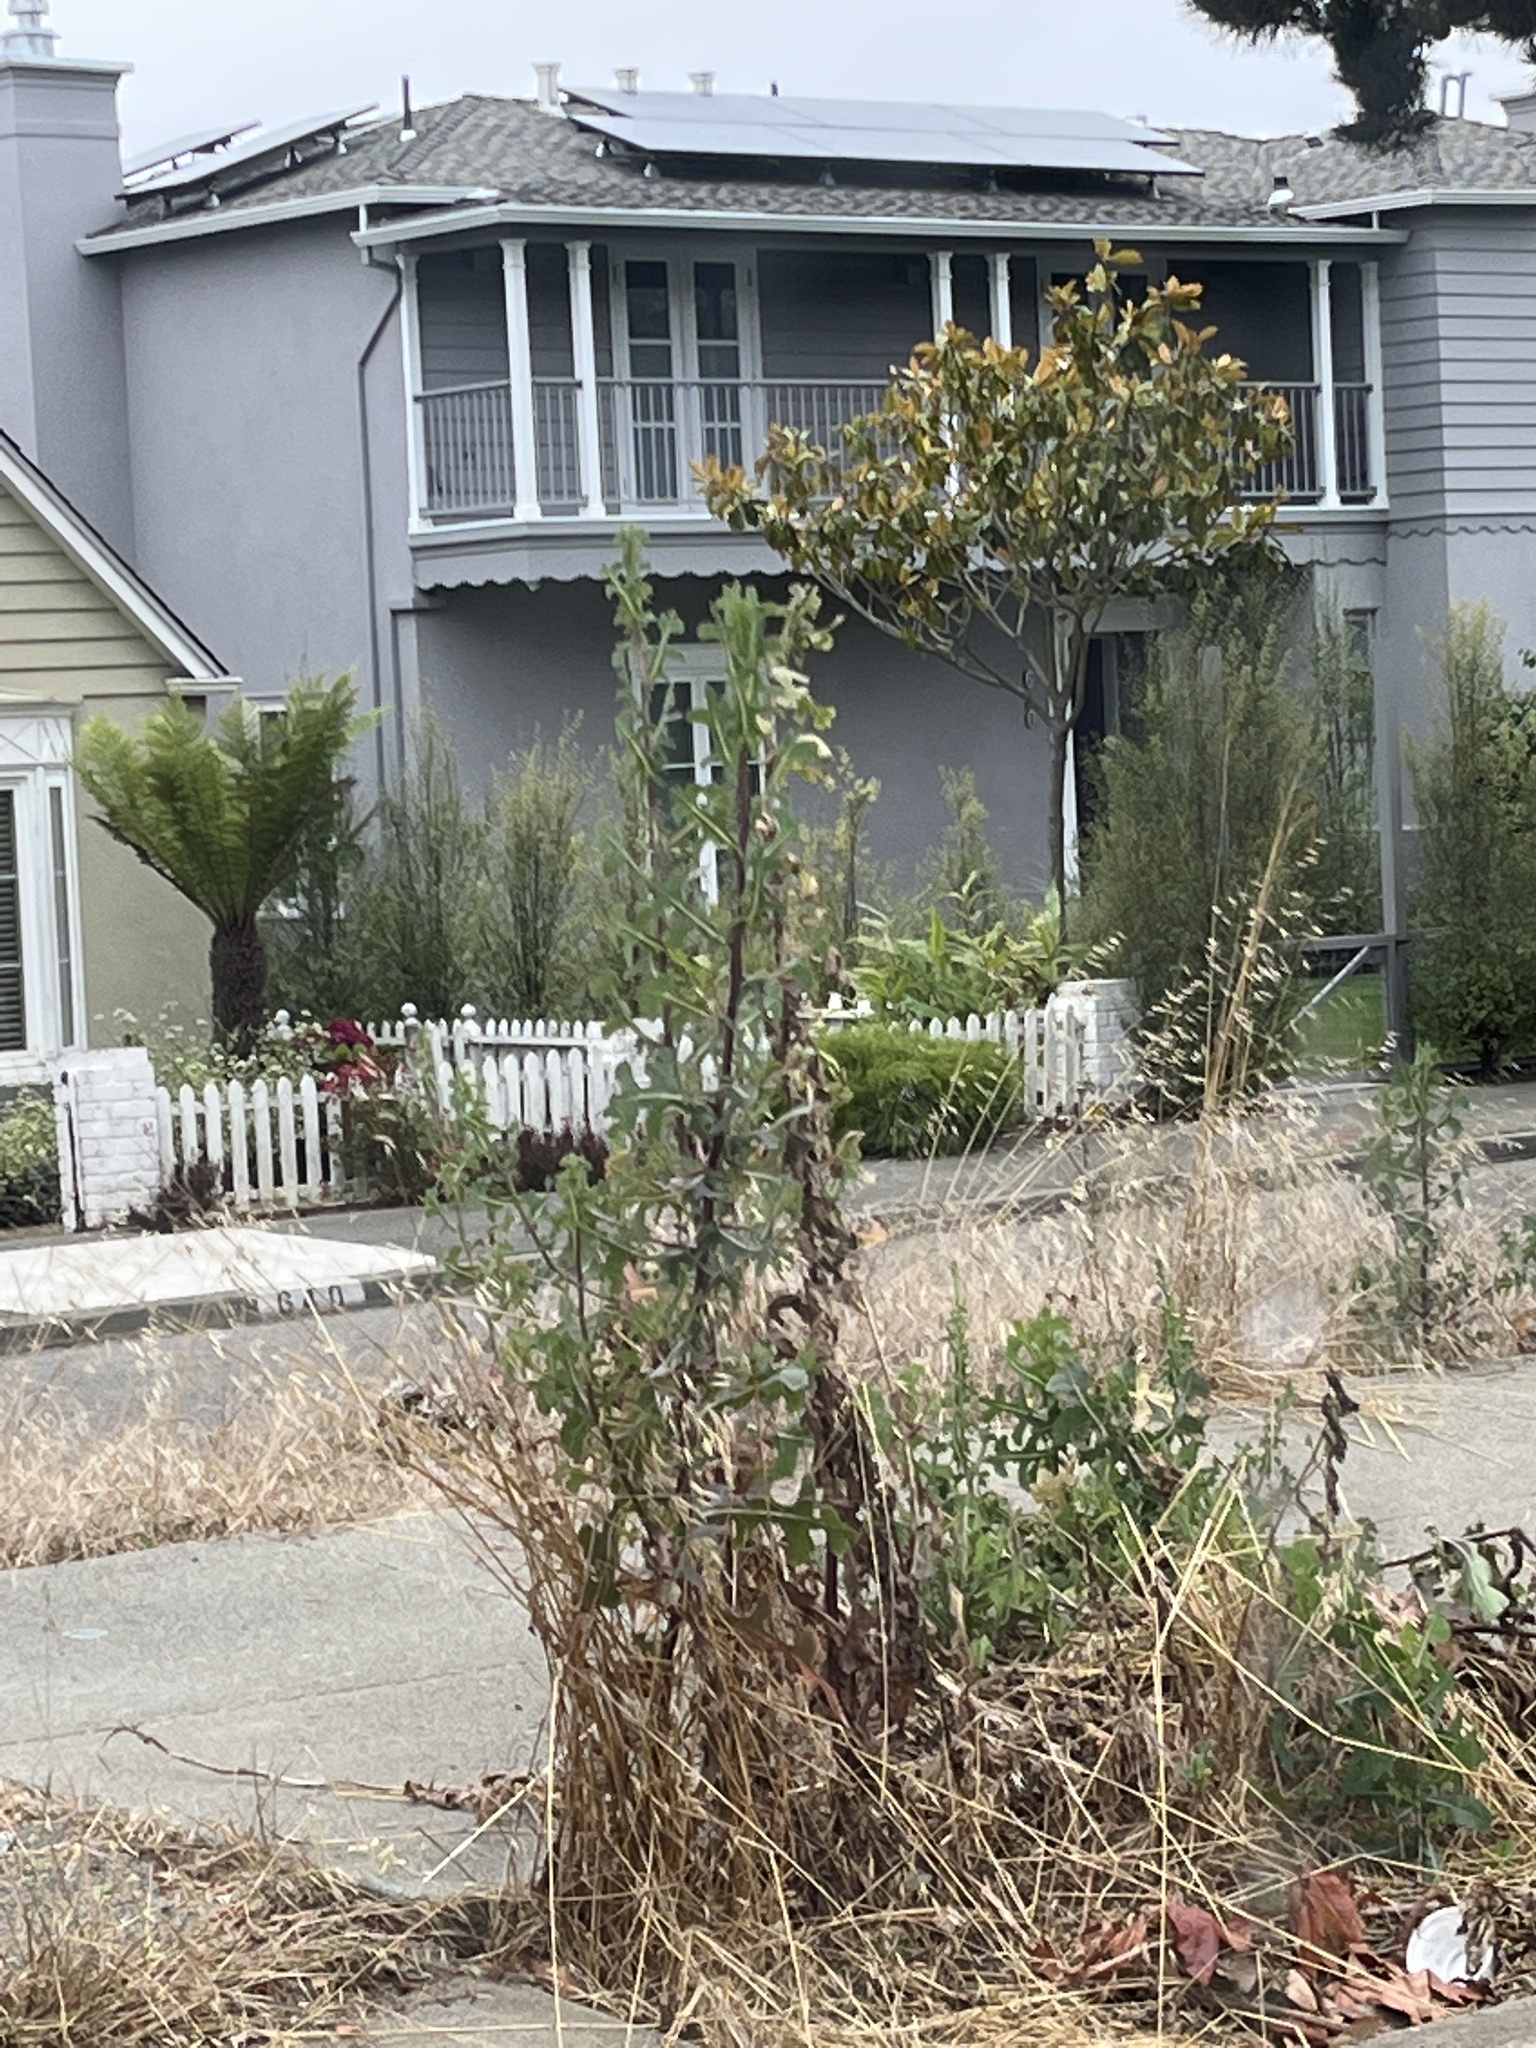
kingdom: Plantae
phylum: Tracheophyta
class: Magnoliopsida
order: Asterales
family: Asteraceae
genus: Lactuca
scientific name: Lactuca serriola
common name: Prickly lettuce
